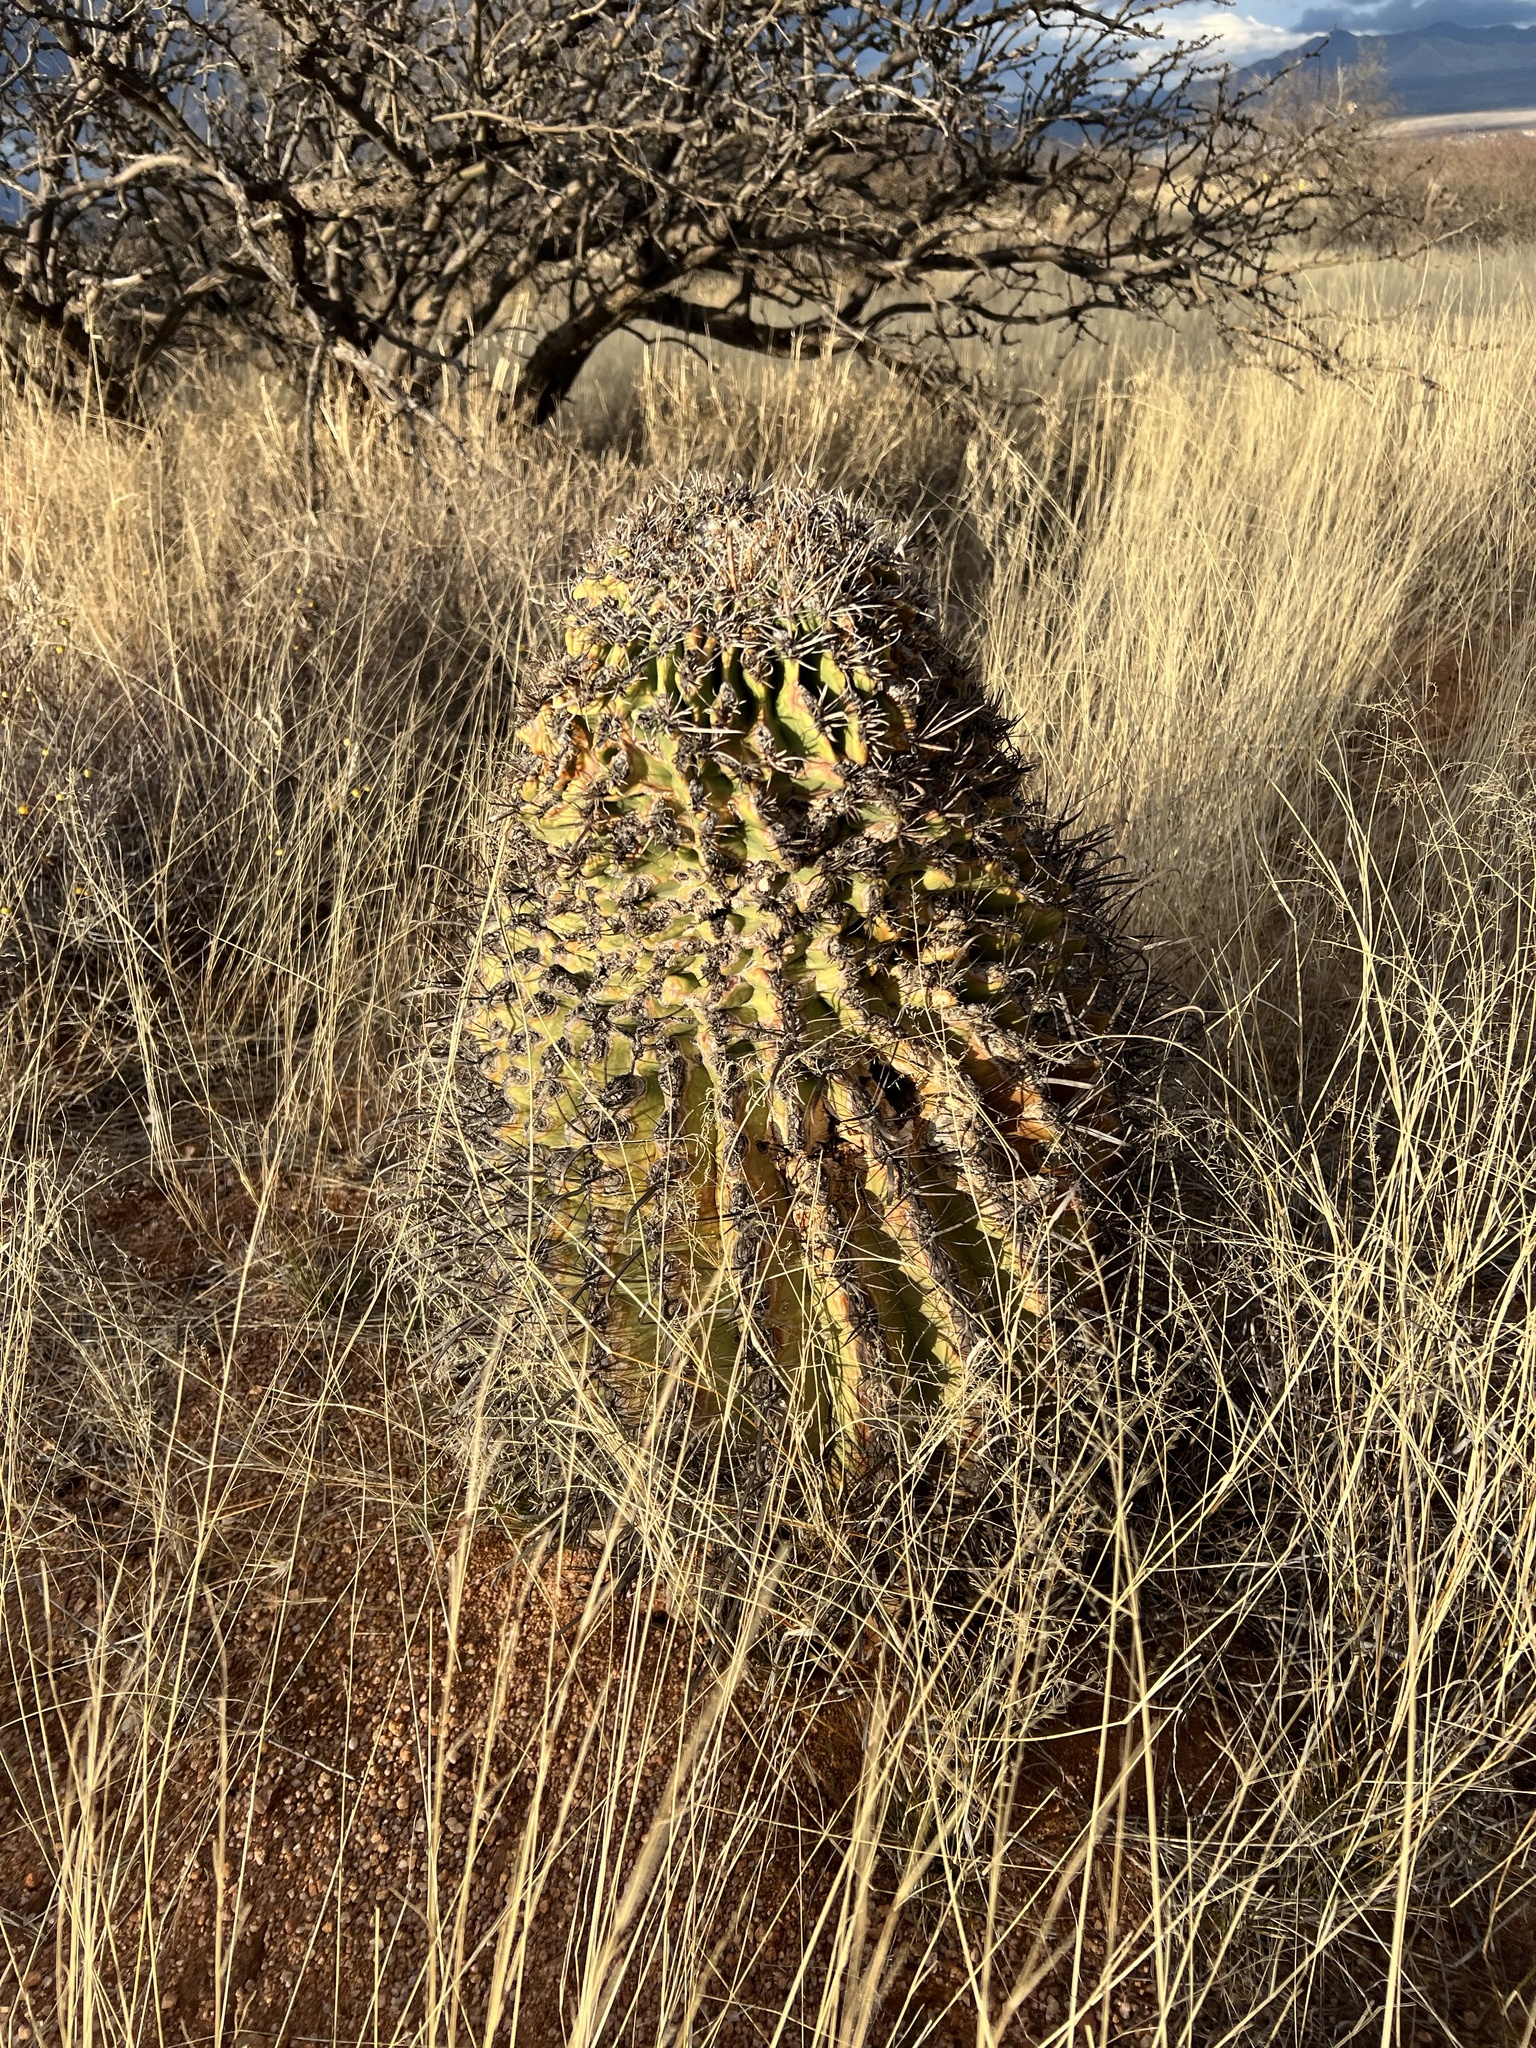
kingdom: Plantae
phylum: Tracheophyta
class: Magnoliopsida
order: Caryophyllales
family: Cactaceae
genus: Ferocactus
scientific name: Ferocactus wislizeni
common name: Candy barrel cactus
